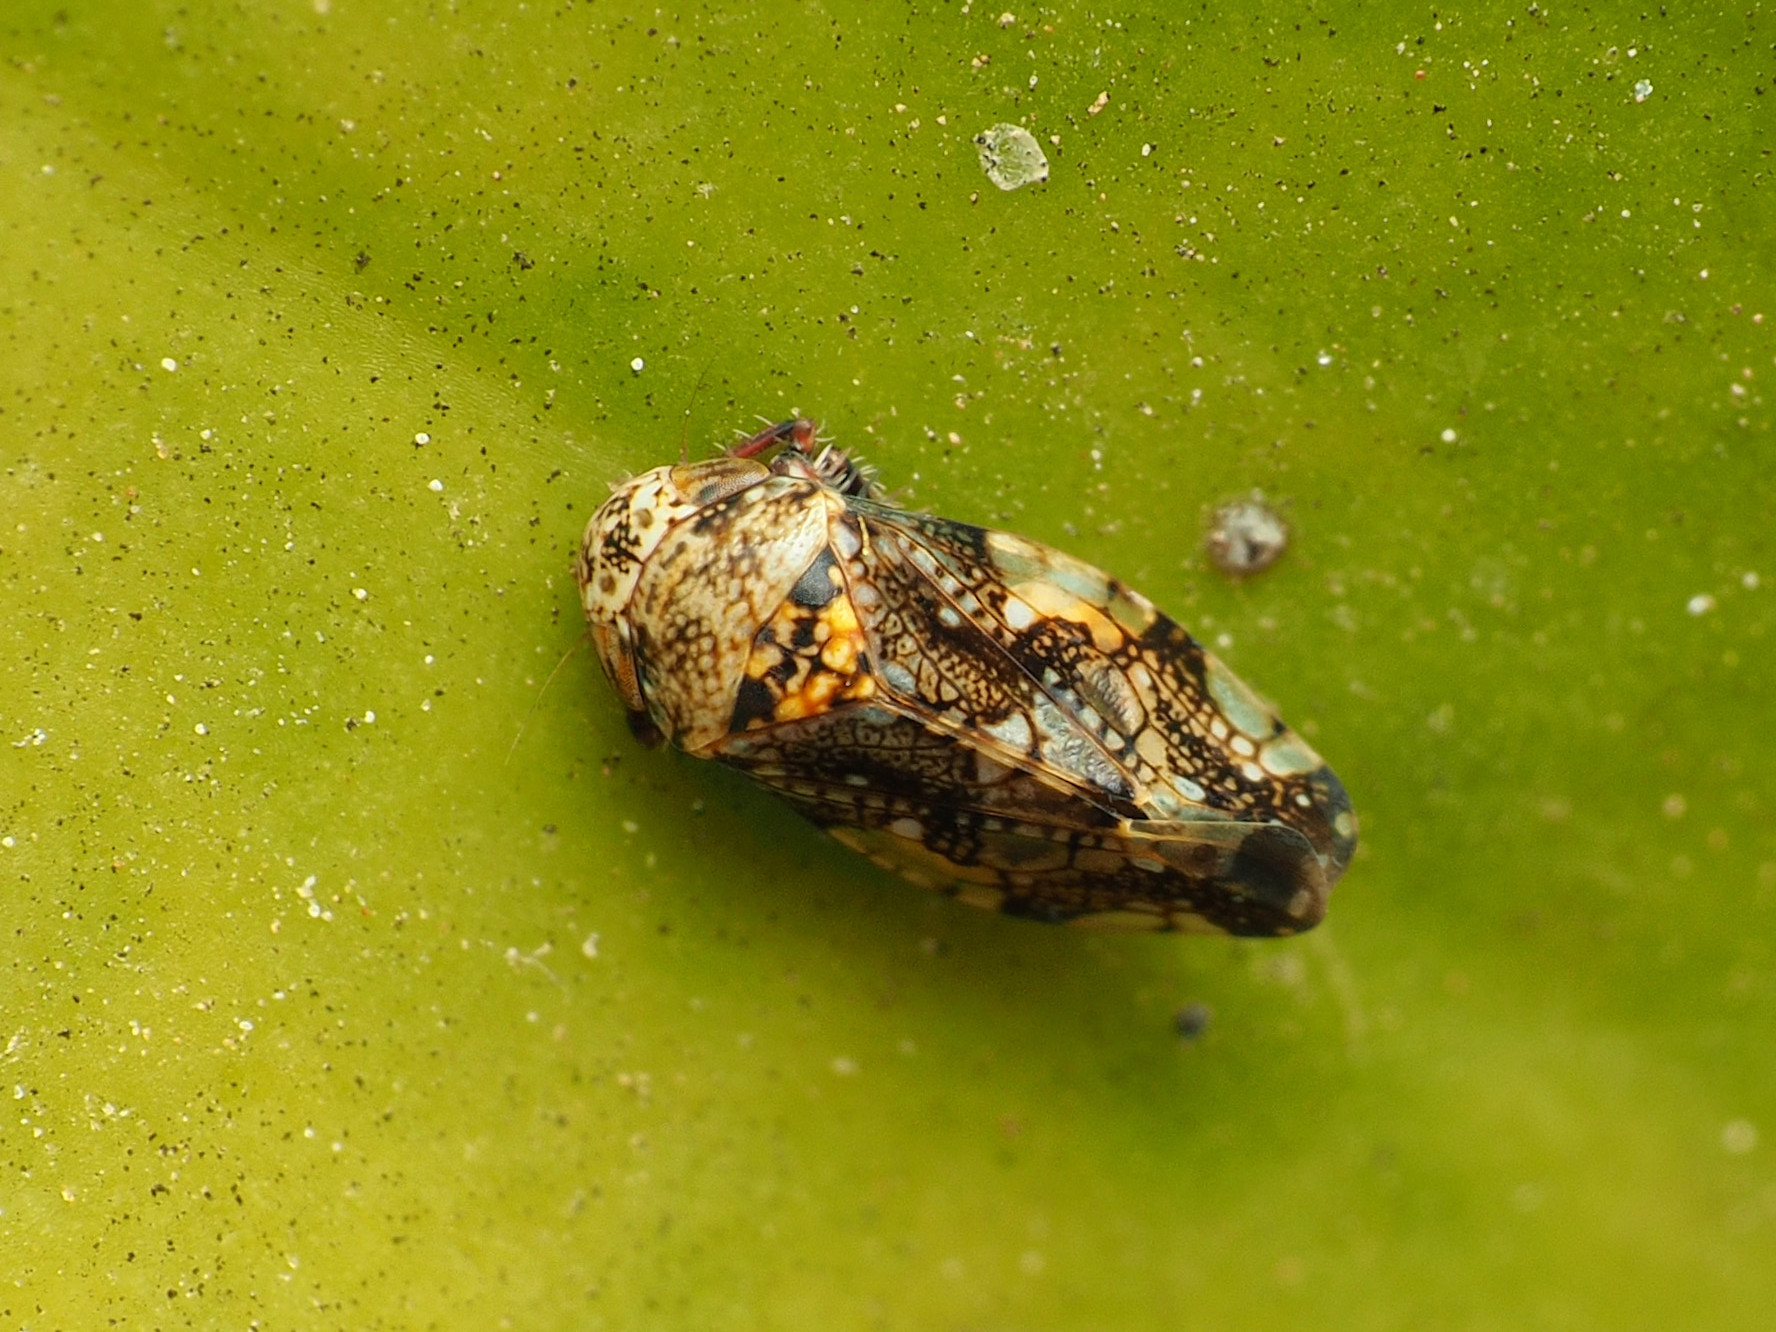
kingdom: Animalia
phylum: Arthropoda
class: Insecta
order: Hemiptera
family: Cicadellidae
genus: Penthimiola
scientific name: Penthimiola bella
